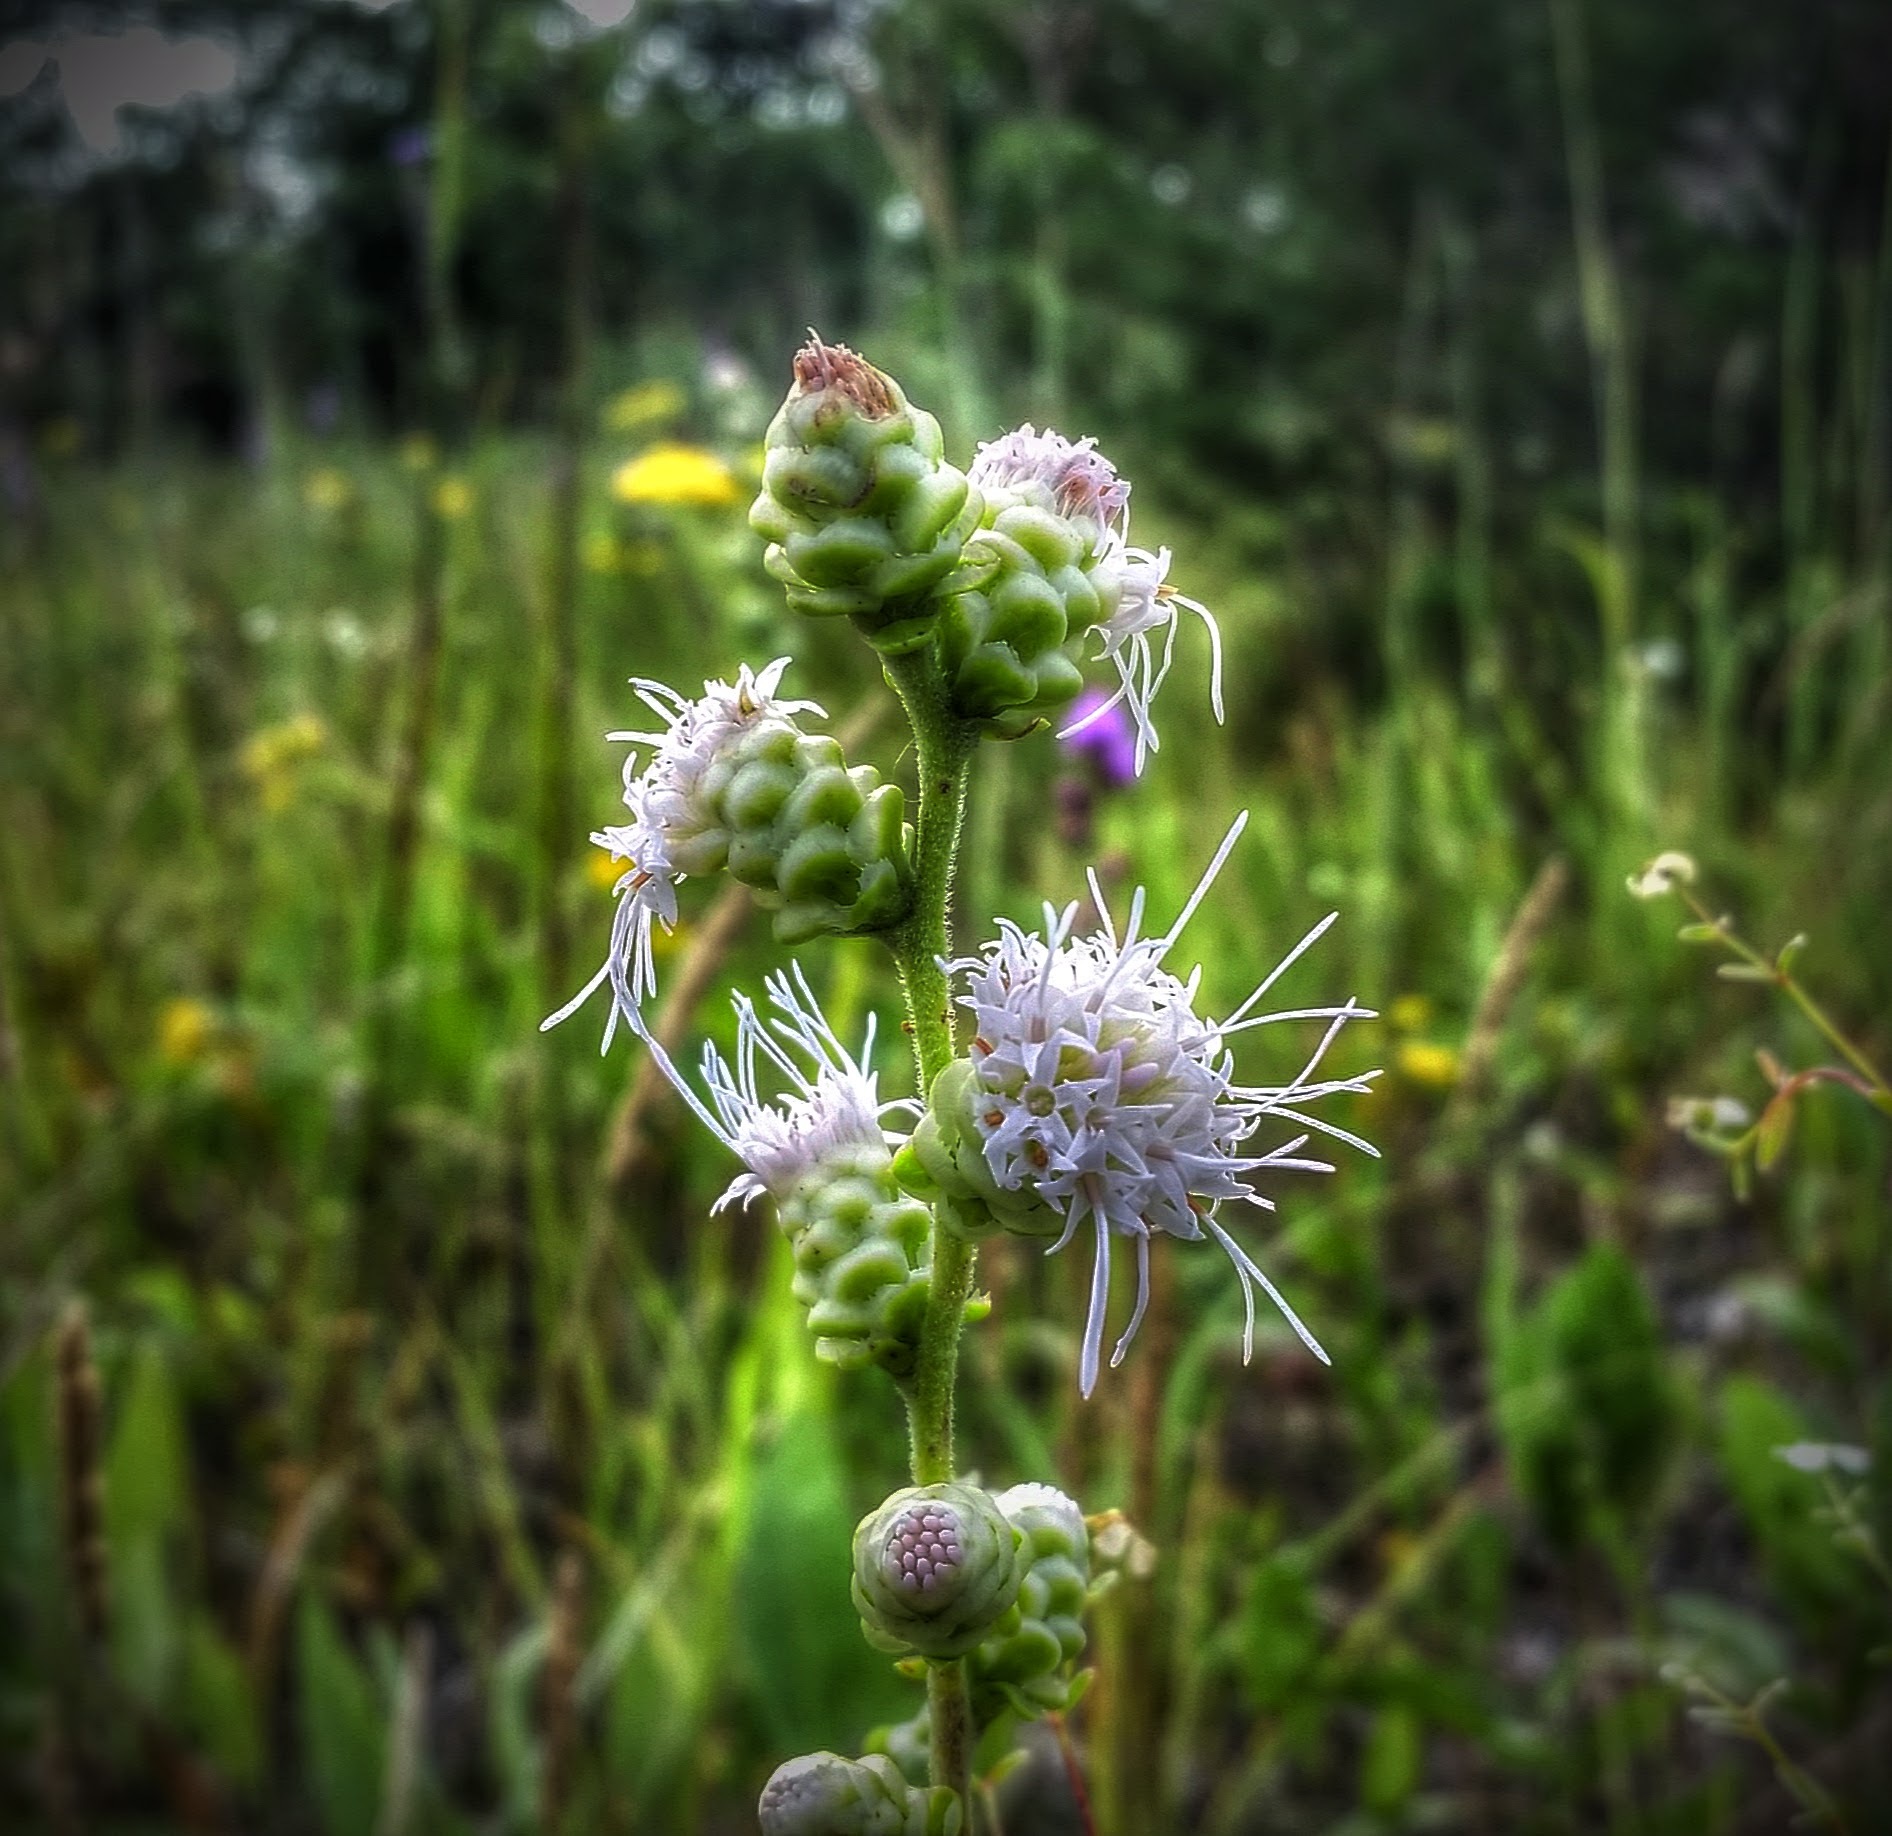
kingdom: Plantae
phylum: Tracheophyta
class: Magnoliopsida
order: Asterales
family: Asteraceae
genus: Liatris
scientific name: Liatris aspera
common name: Lacerate blazing-star
